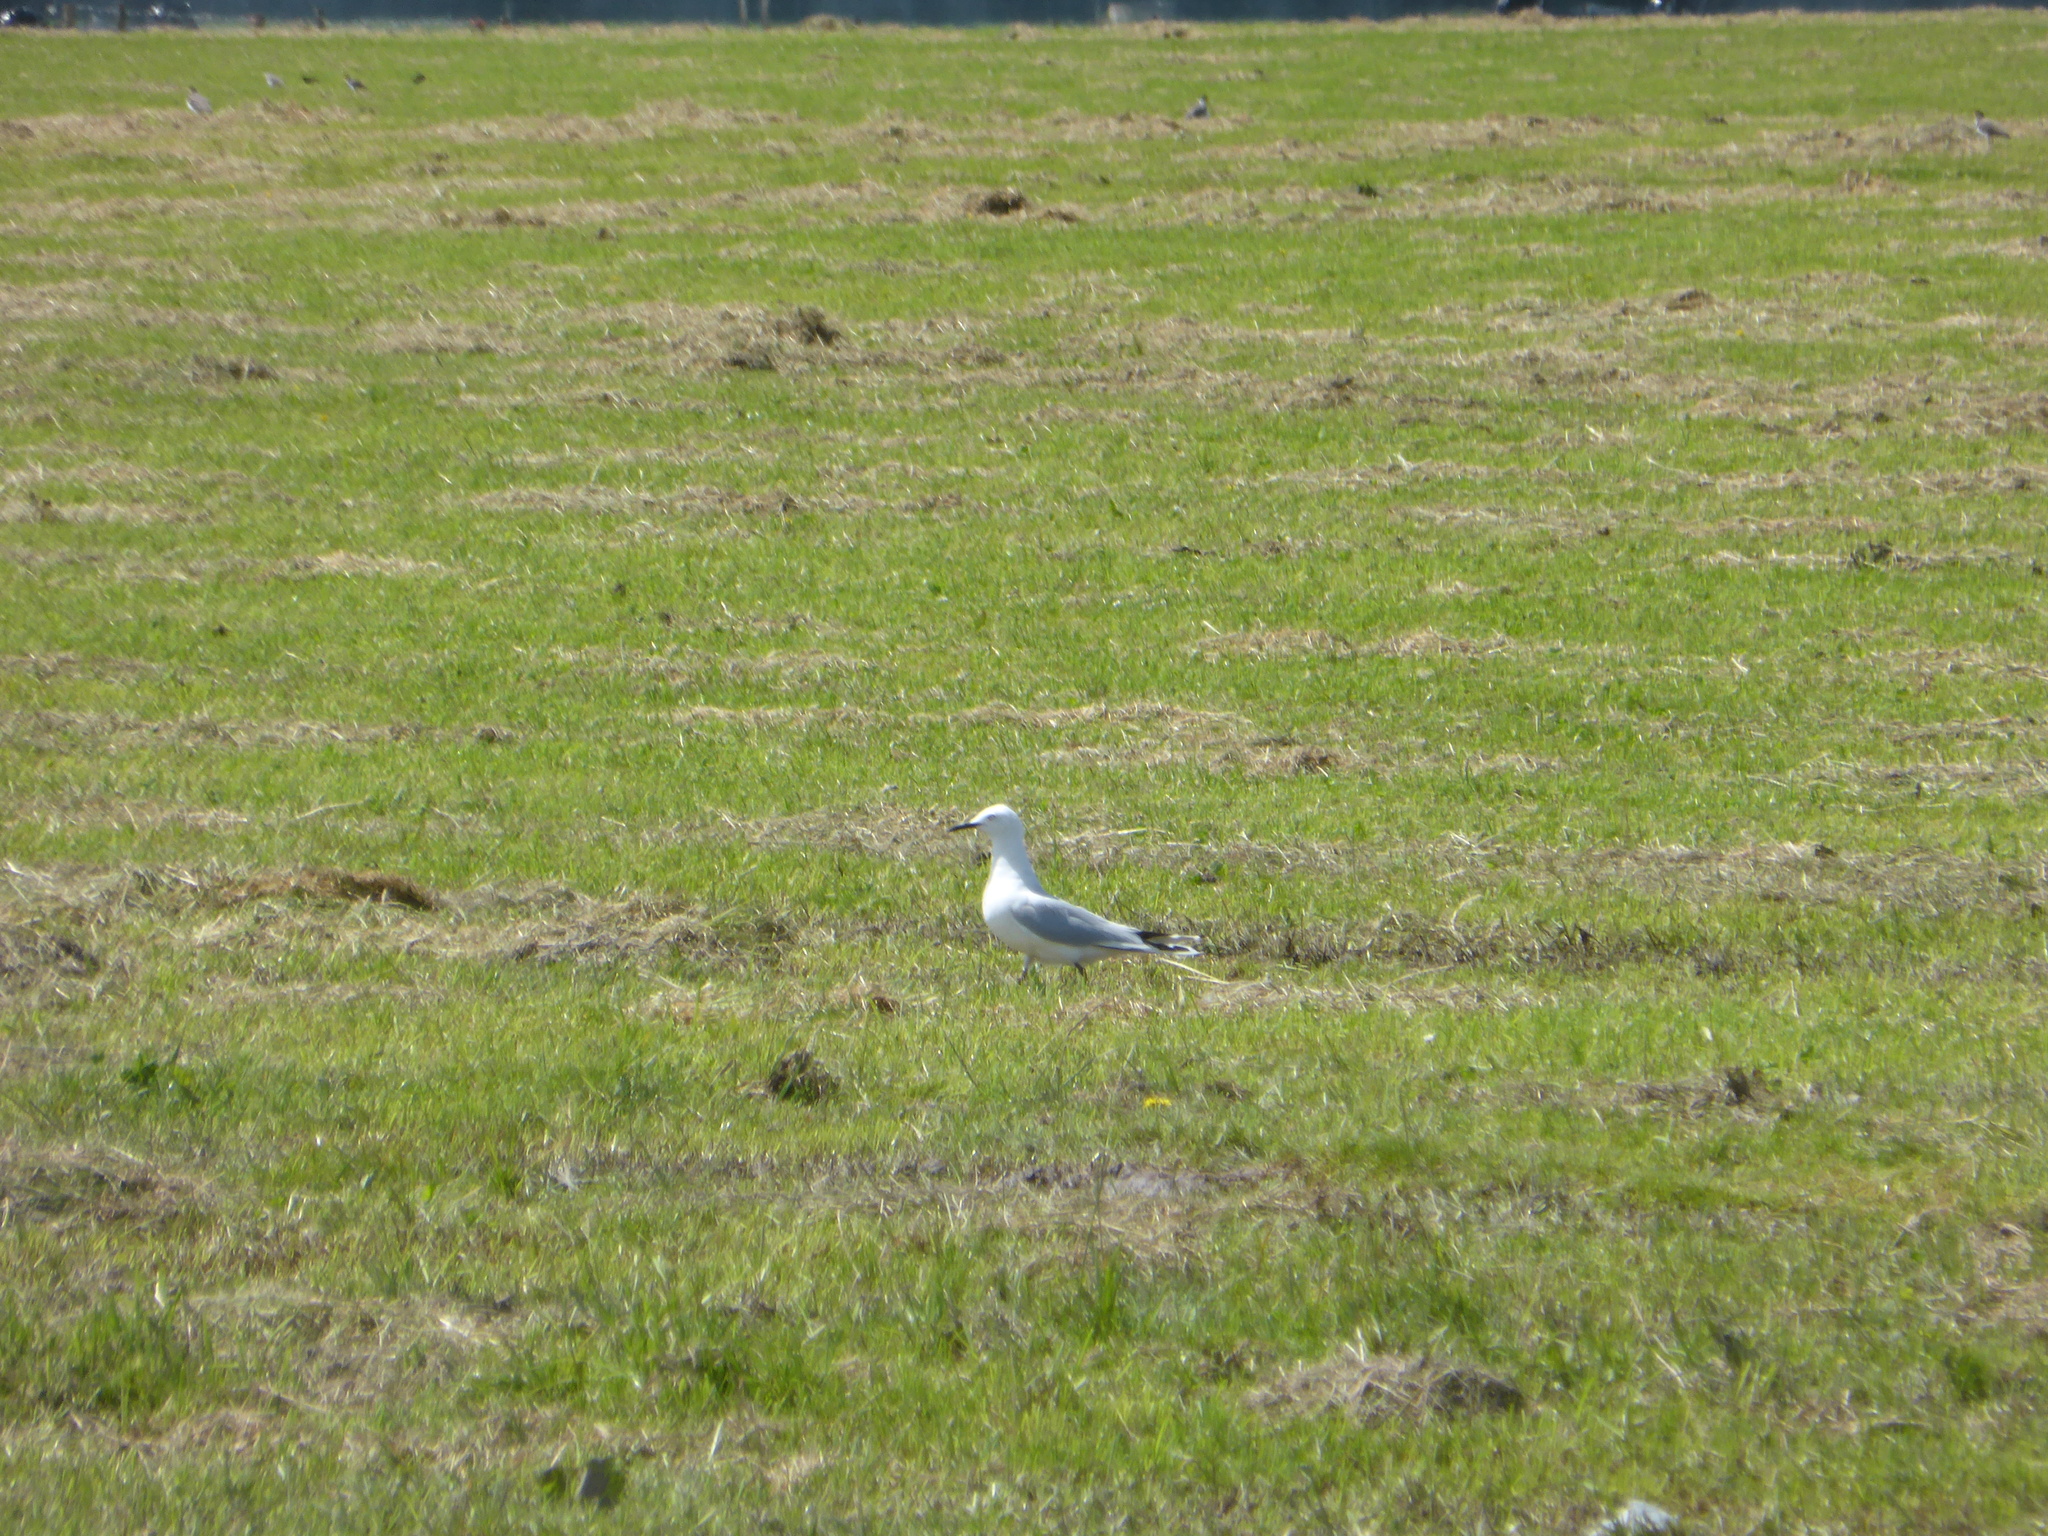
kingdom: Animalia
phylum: Chordata
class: Aves
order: Charadriiformes
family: Laridae
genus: Chroicocephalus
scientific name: Chroicocephalus bulleri
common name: Black-billed gull
